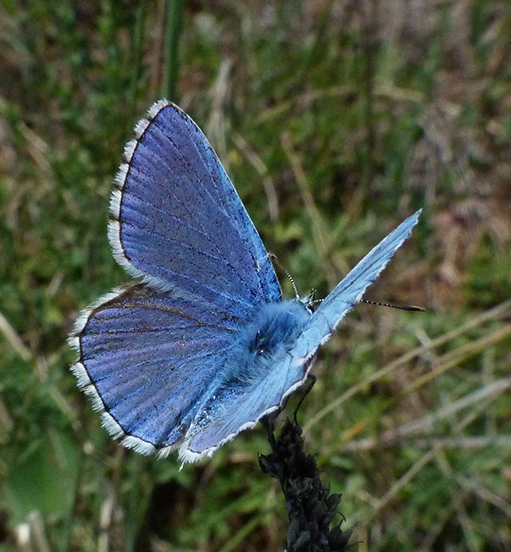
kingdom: Animalia
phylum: Arthropoda
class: Insecta
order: Lepidoptera
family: Lycaenidae
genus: Lysandra
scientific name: Lysandra bellargus
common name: Adonis blue
